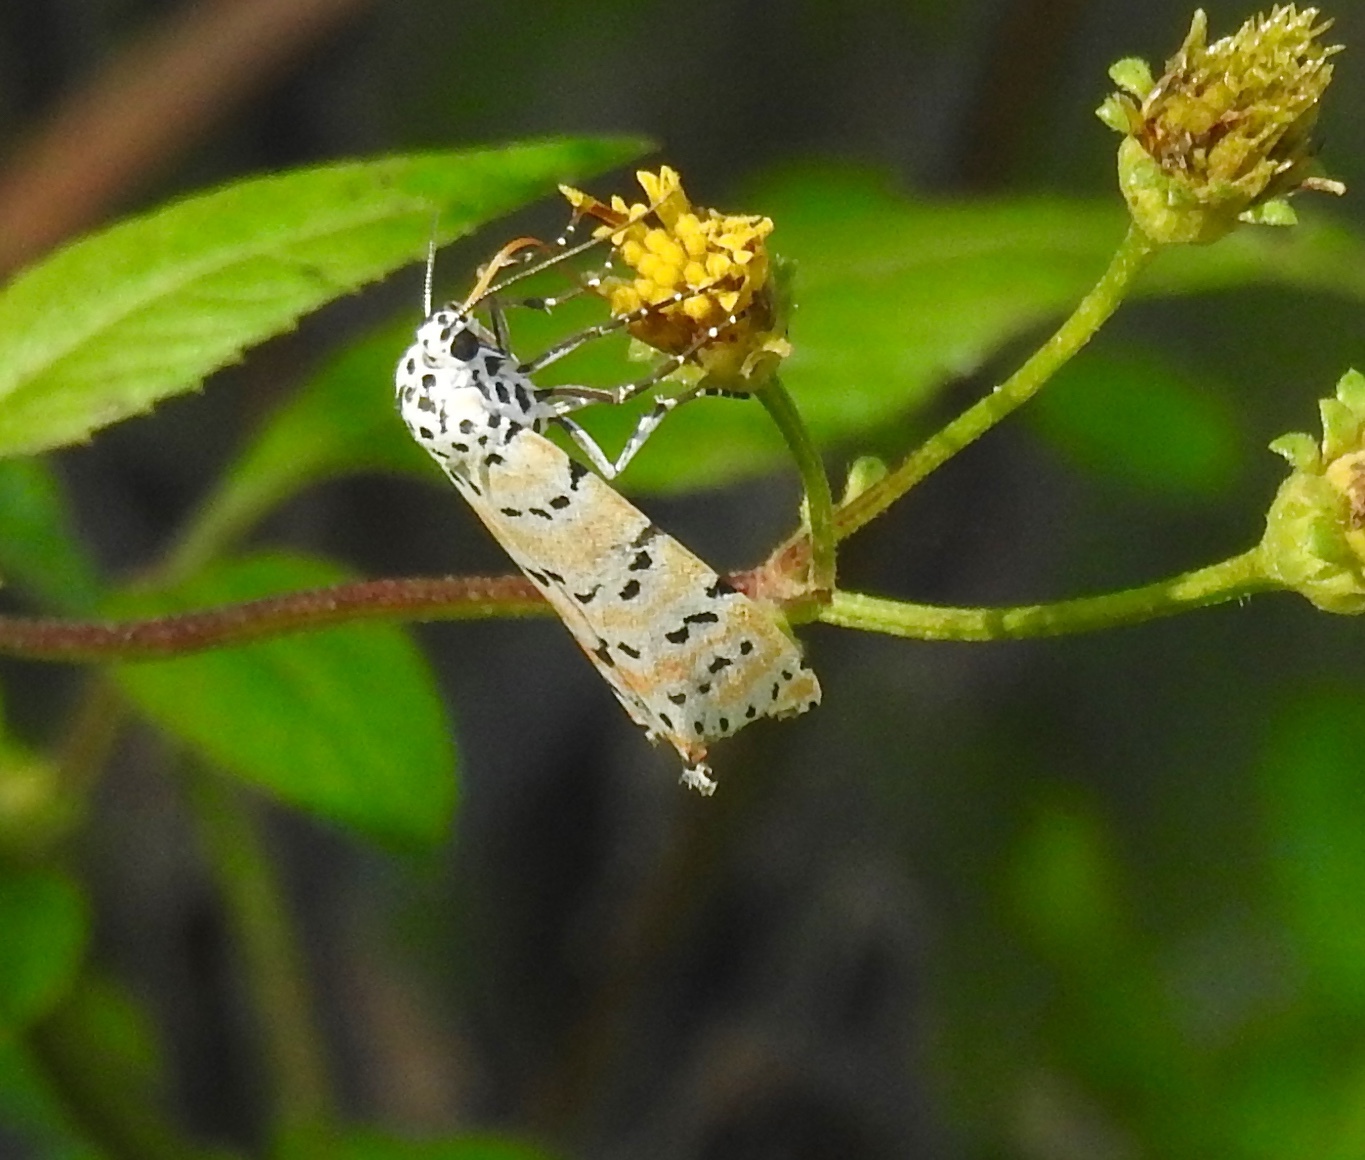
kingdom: Animalia
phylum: Arthropoda
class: Insecta
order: Lepidoptera
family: Erebidae
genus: Utetheisa
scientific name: Utetheisa ornatrix
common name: Beautiful utetheisa
